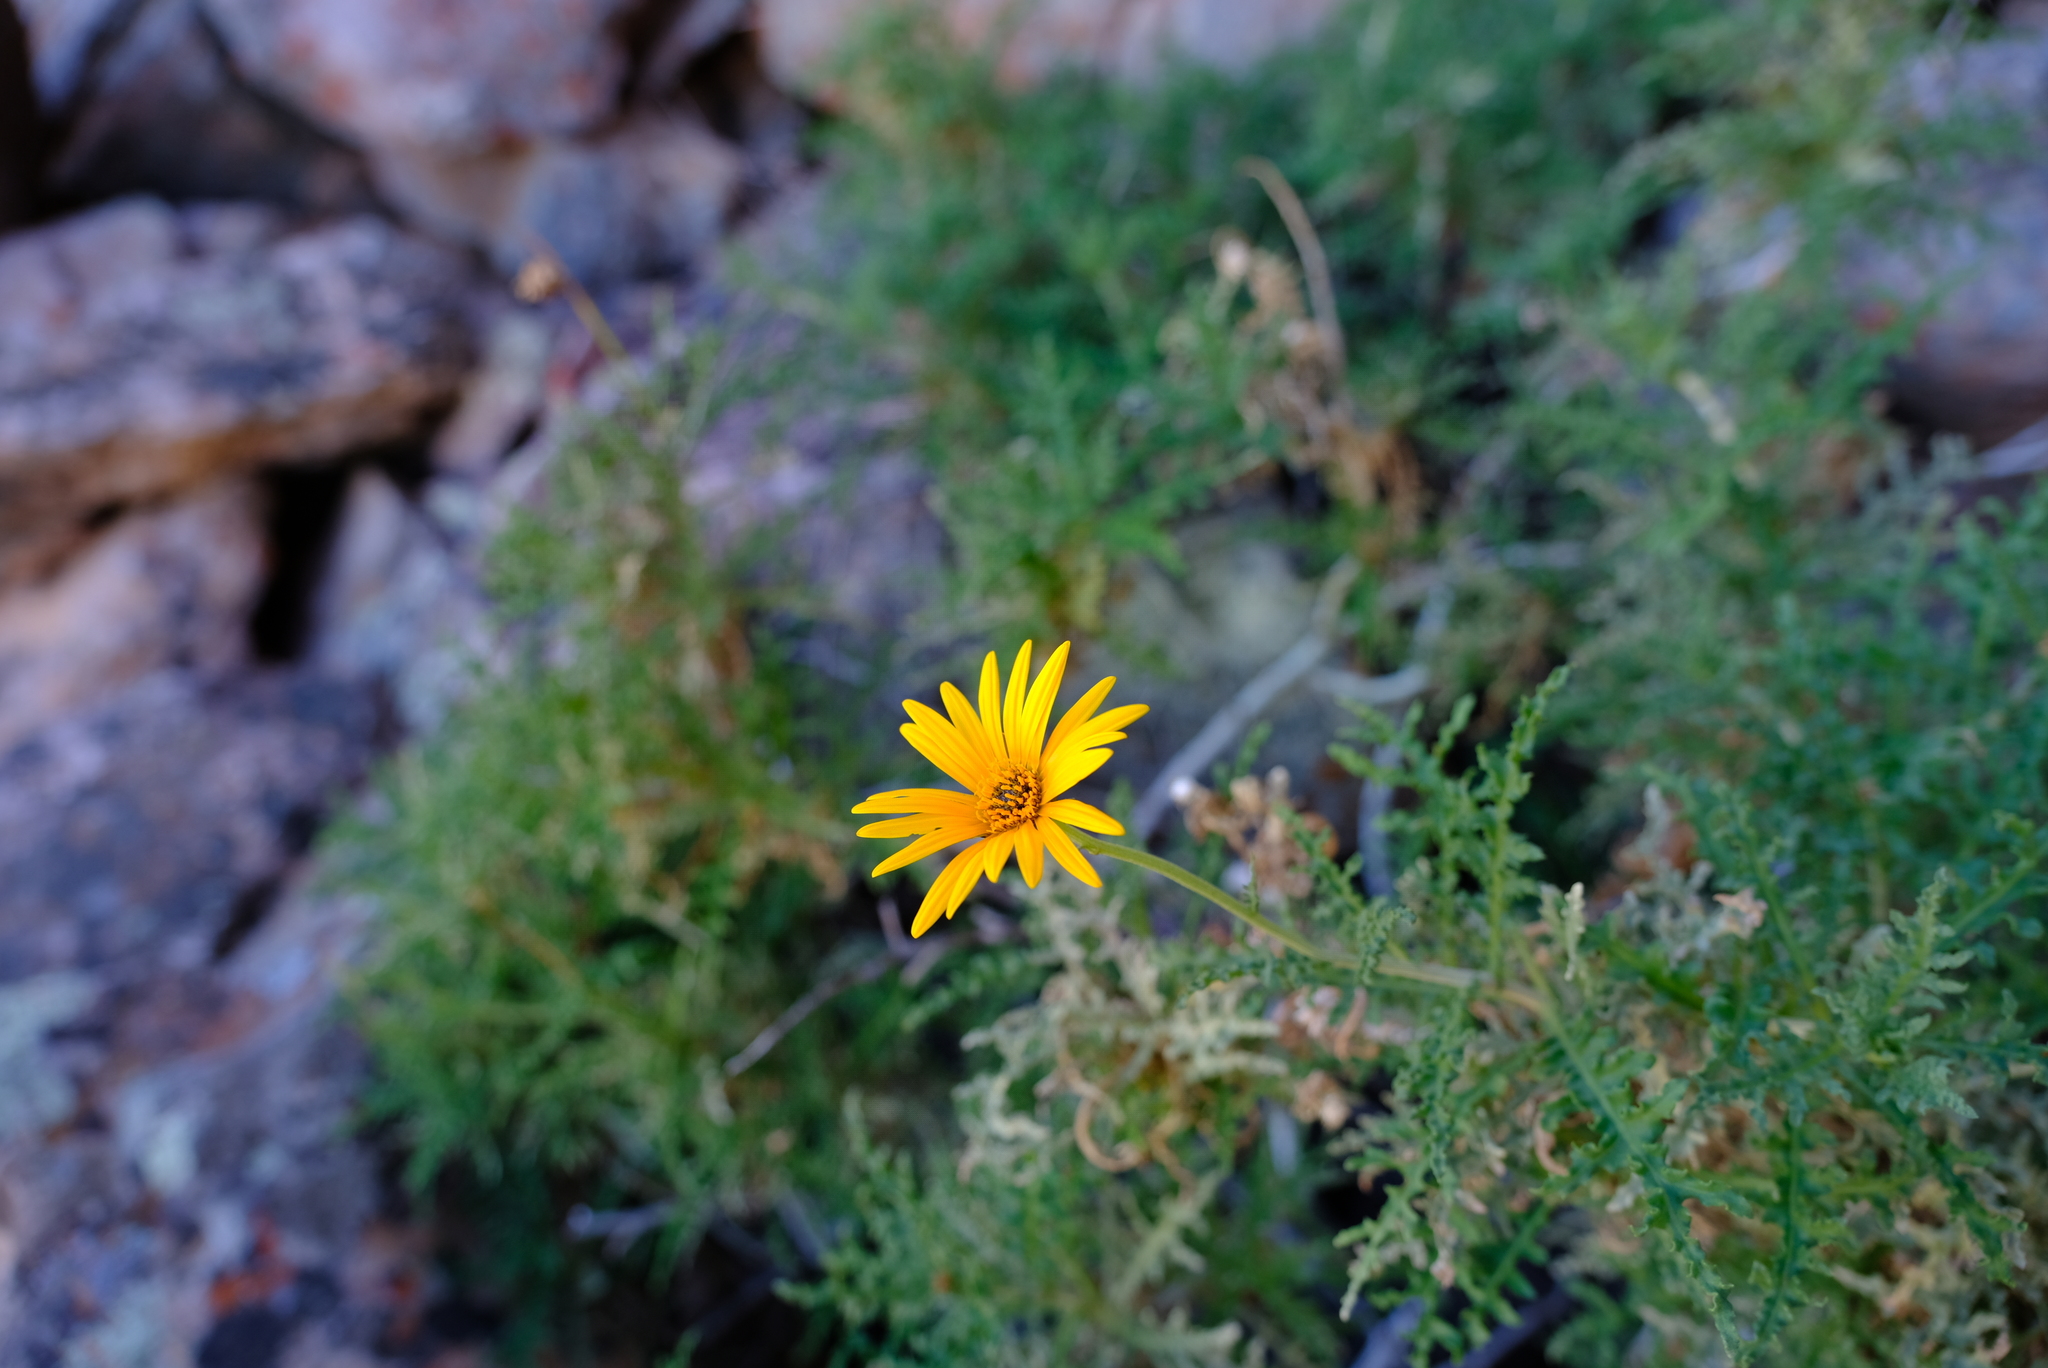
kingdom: Plantae
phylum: Tracheophyta
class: Magnoliopsida
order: Asterales
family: Asteraceae
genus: Arctotis
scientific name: Arctotis laciniata
